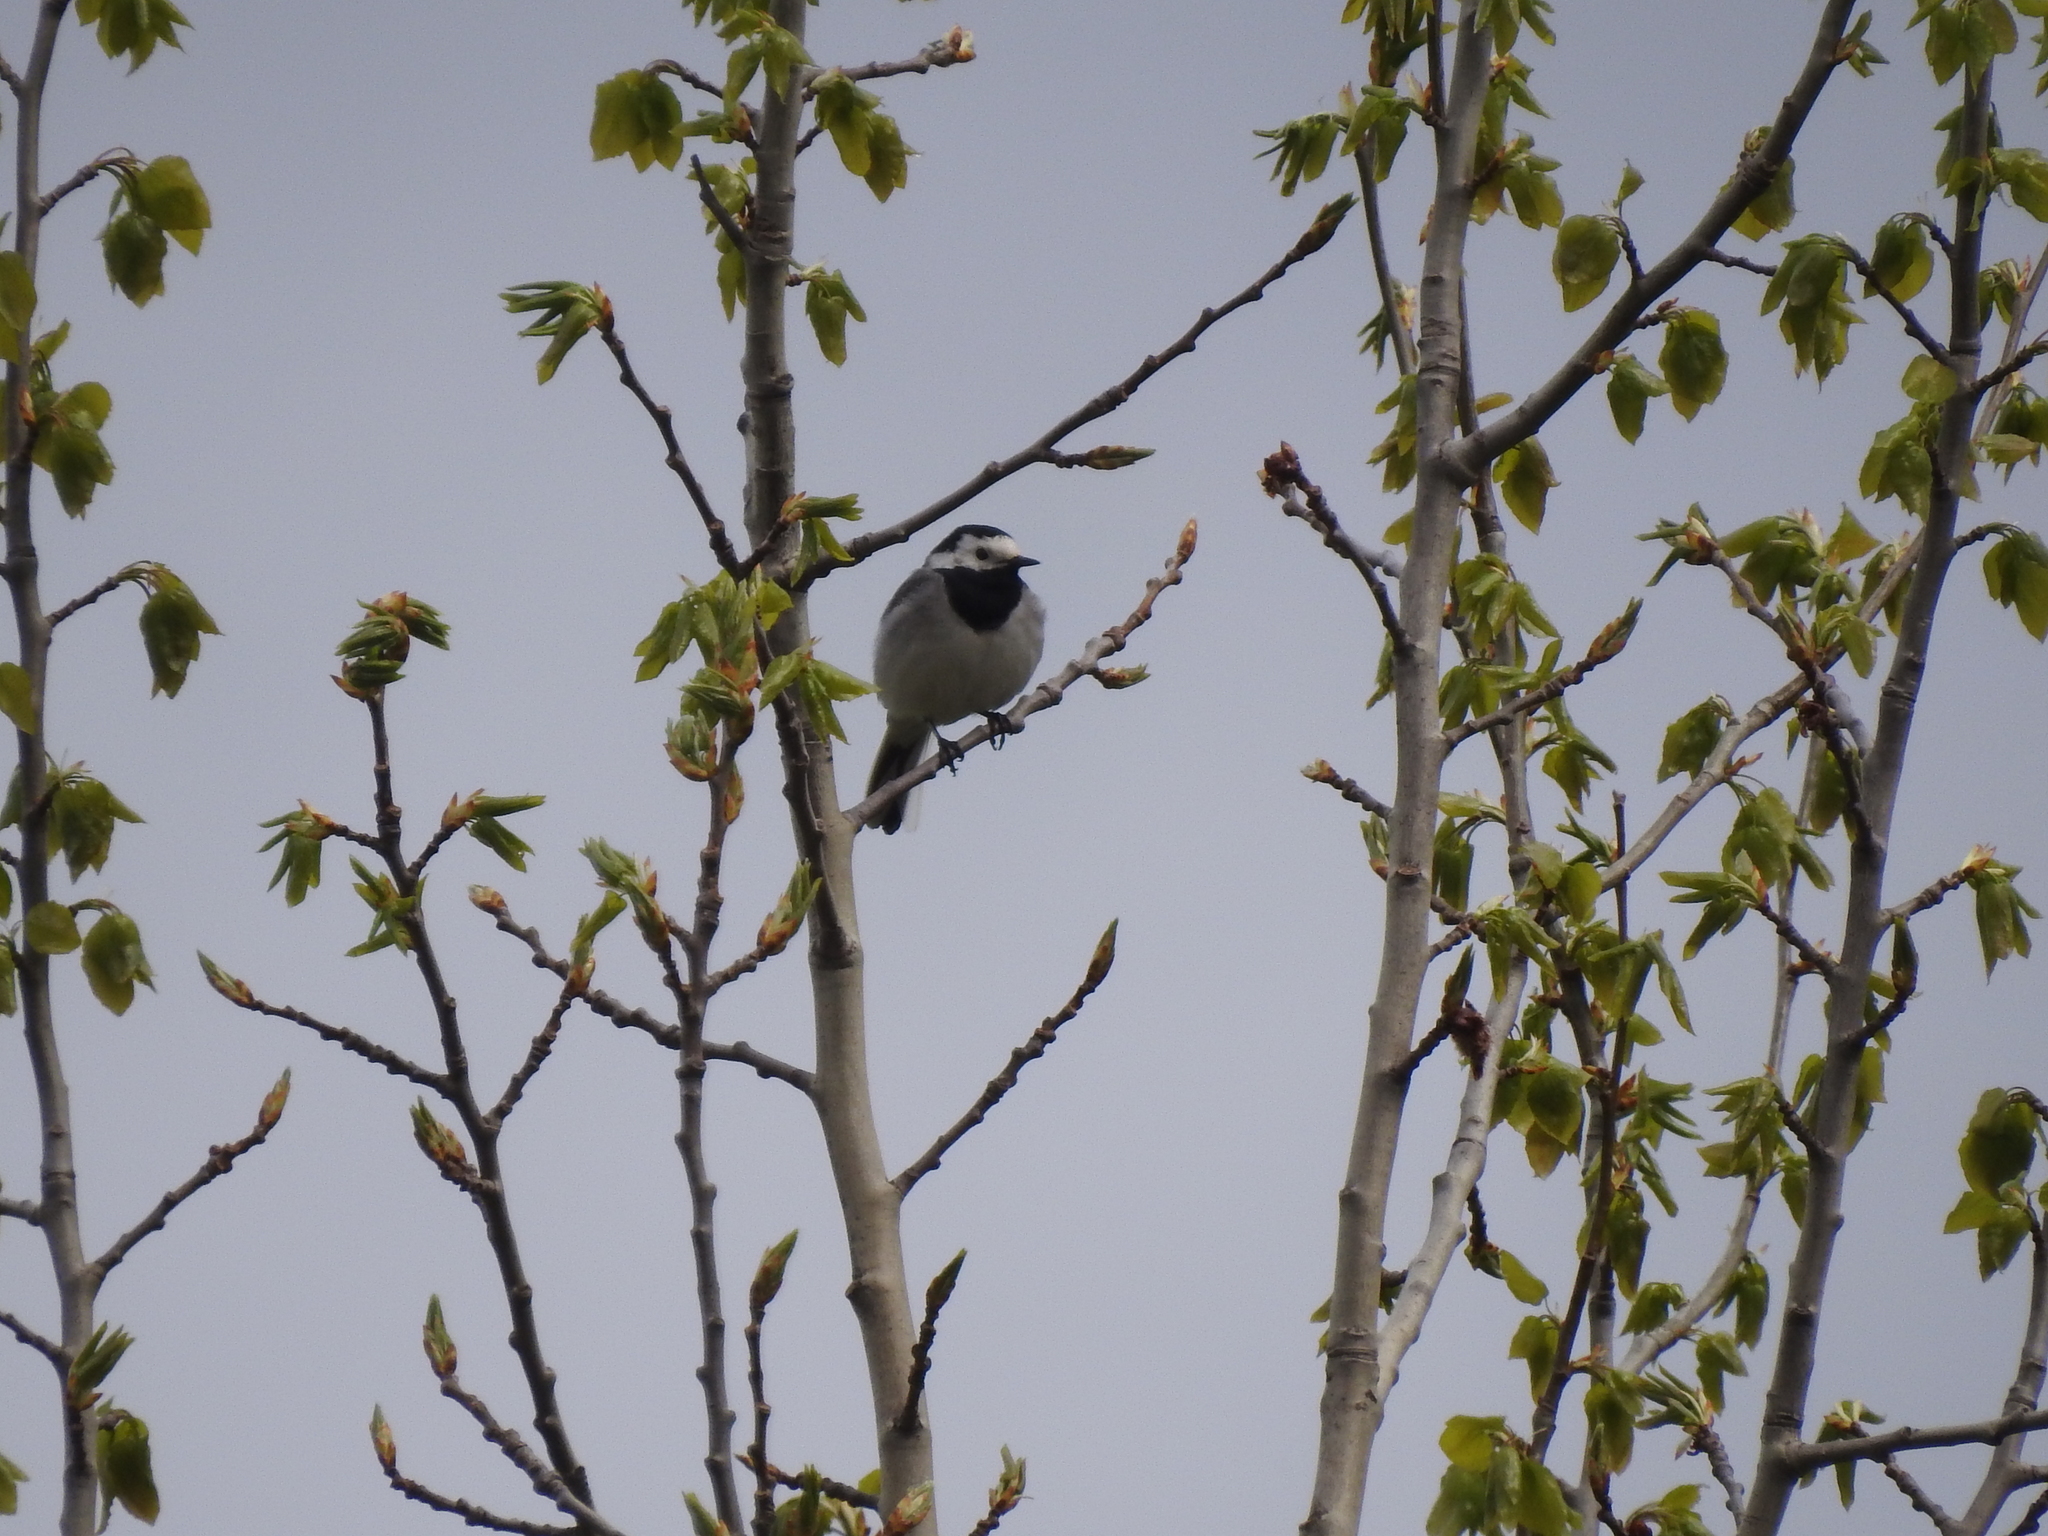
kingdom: Animalia
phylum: Chordata
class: Aves
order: Passeriformes
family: Motacillidae
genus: Motacilla
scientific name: Motacilla alba
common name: White wagtail
